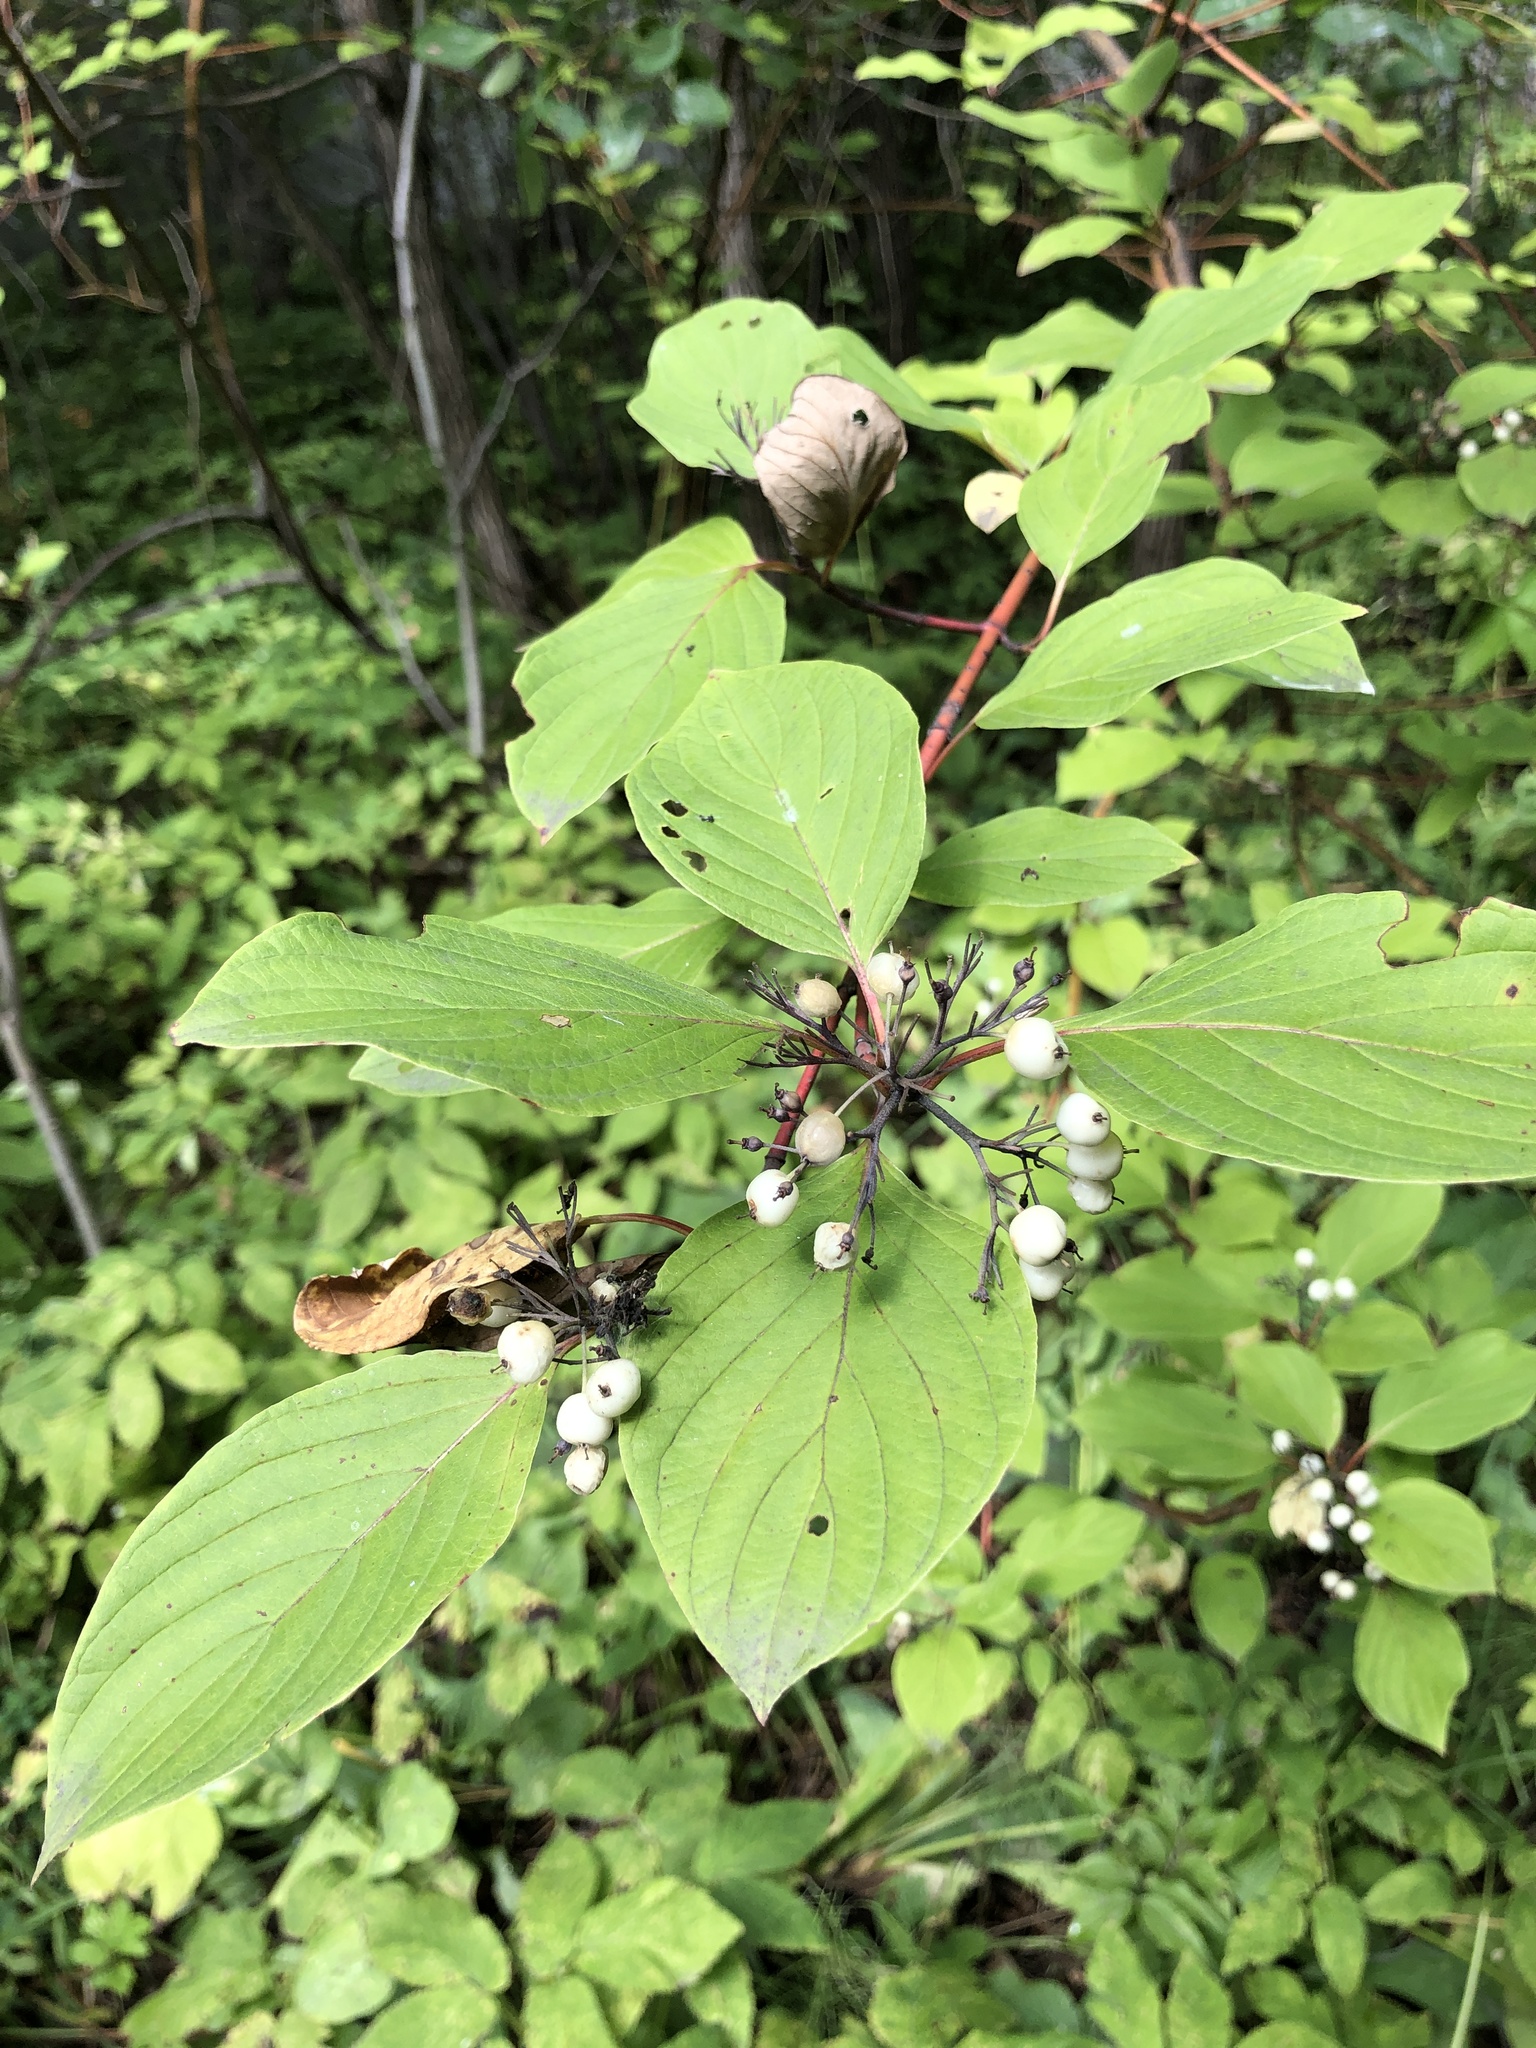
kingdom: Plantae
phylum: Tracheophyta
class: Magnoliopsida
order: Cornales
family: Cornaceae
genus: Cornus
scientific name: Cornus alba
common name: White dogwood
